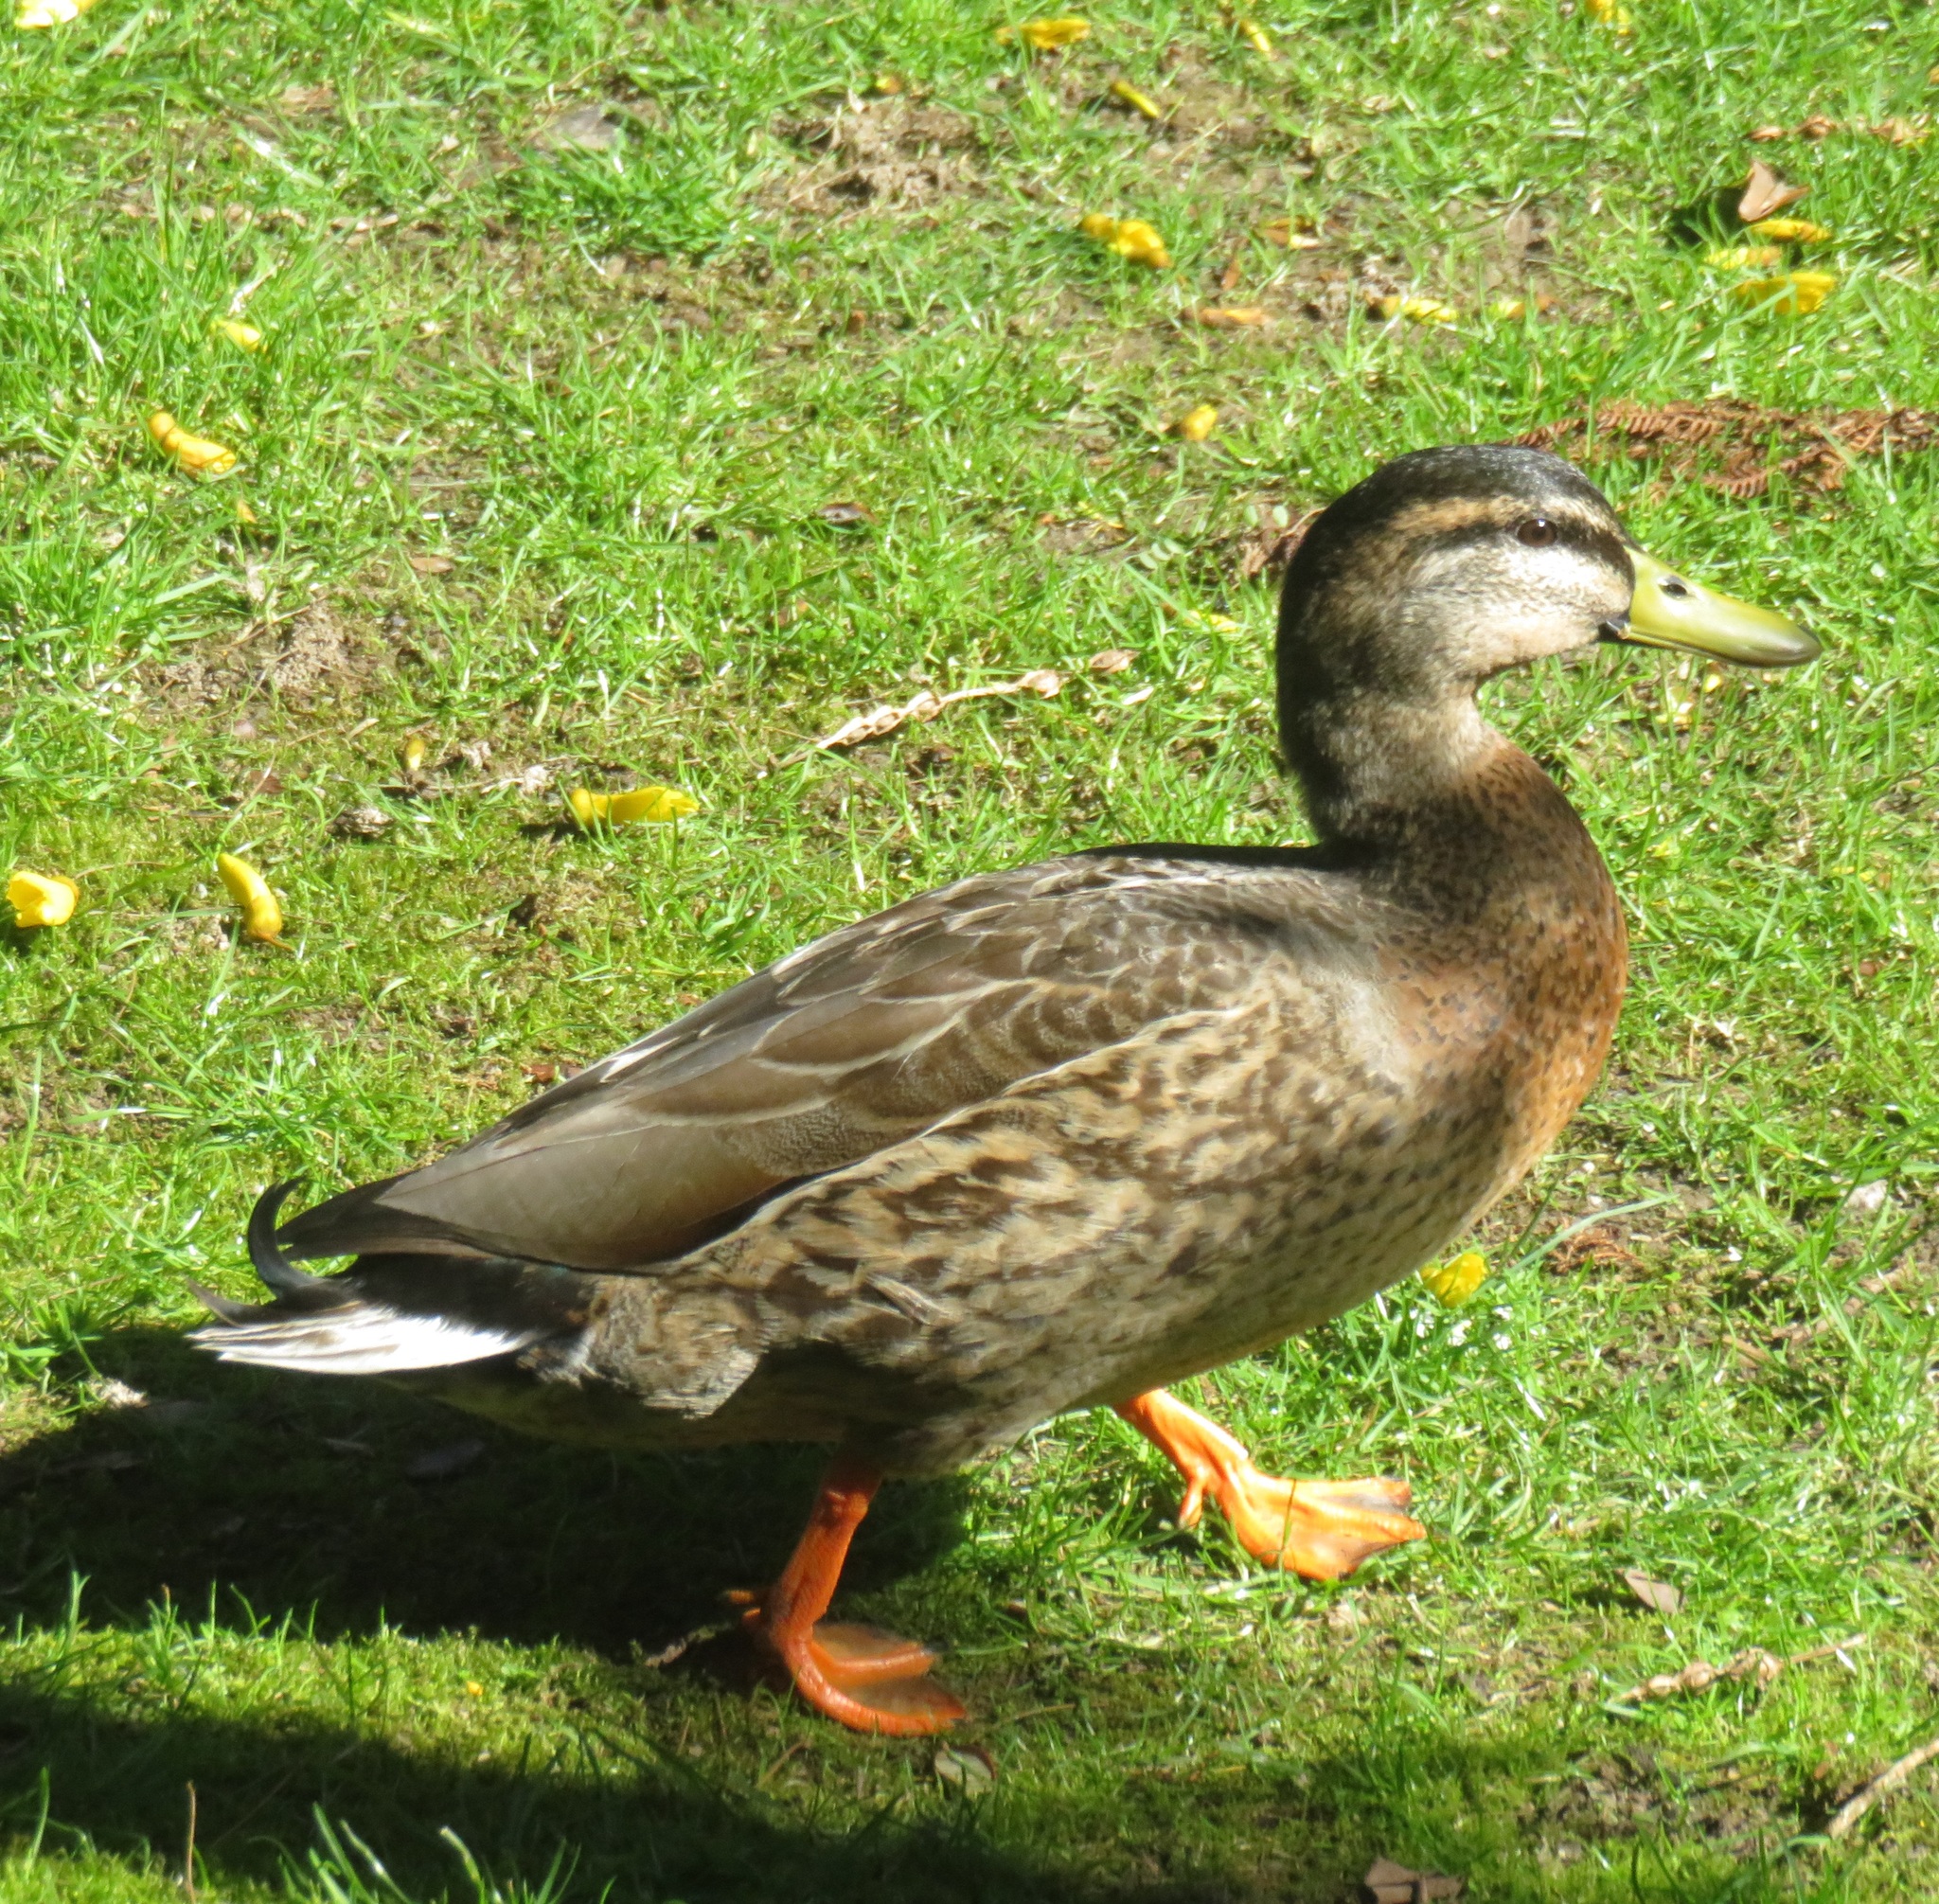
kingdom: Animalia
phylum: Chordata
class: Aves
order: Anseriformes
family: Anatidae
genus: Anas
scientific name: Anas
